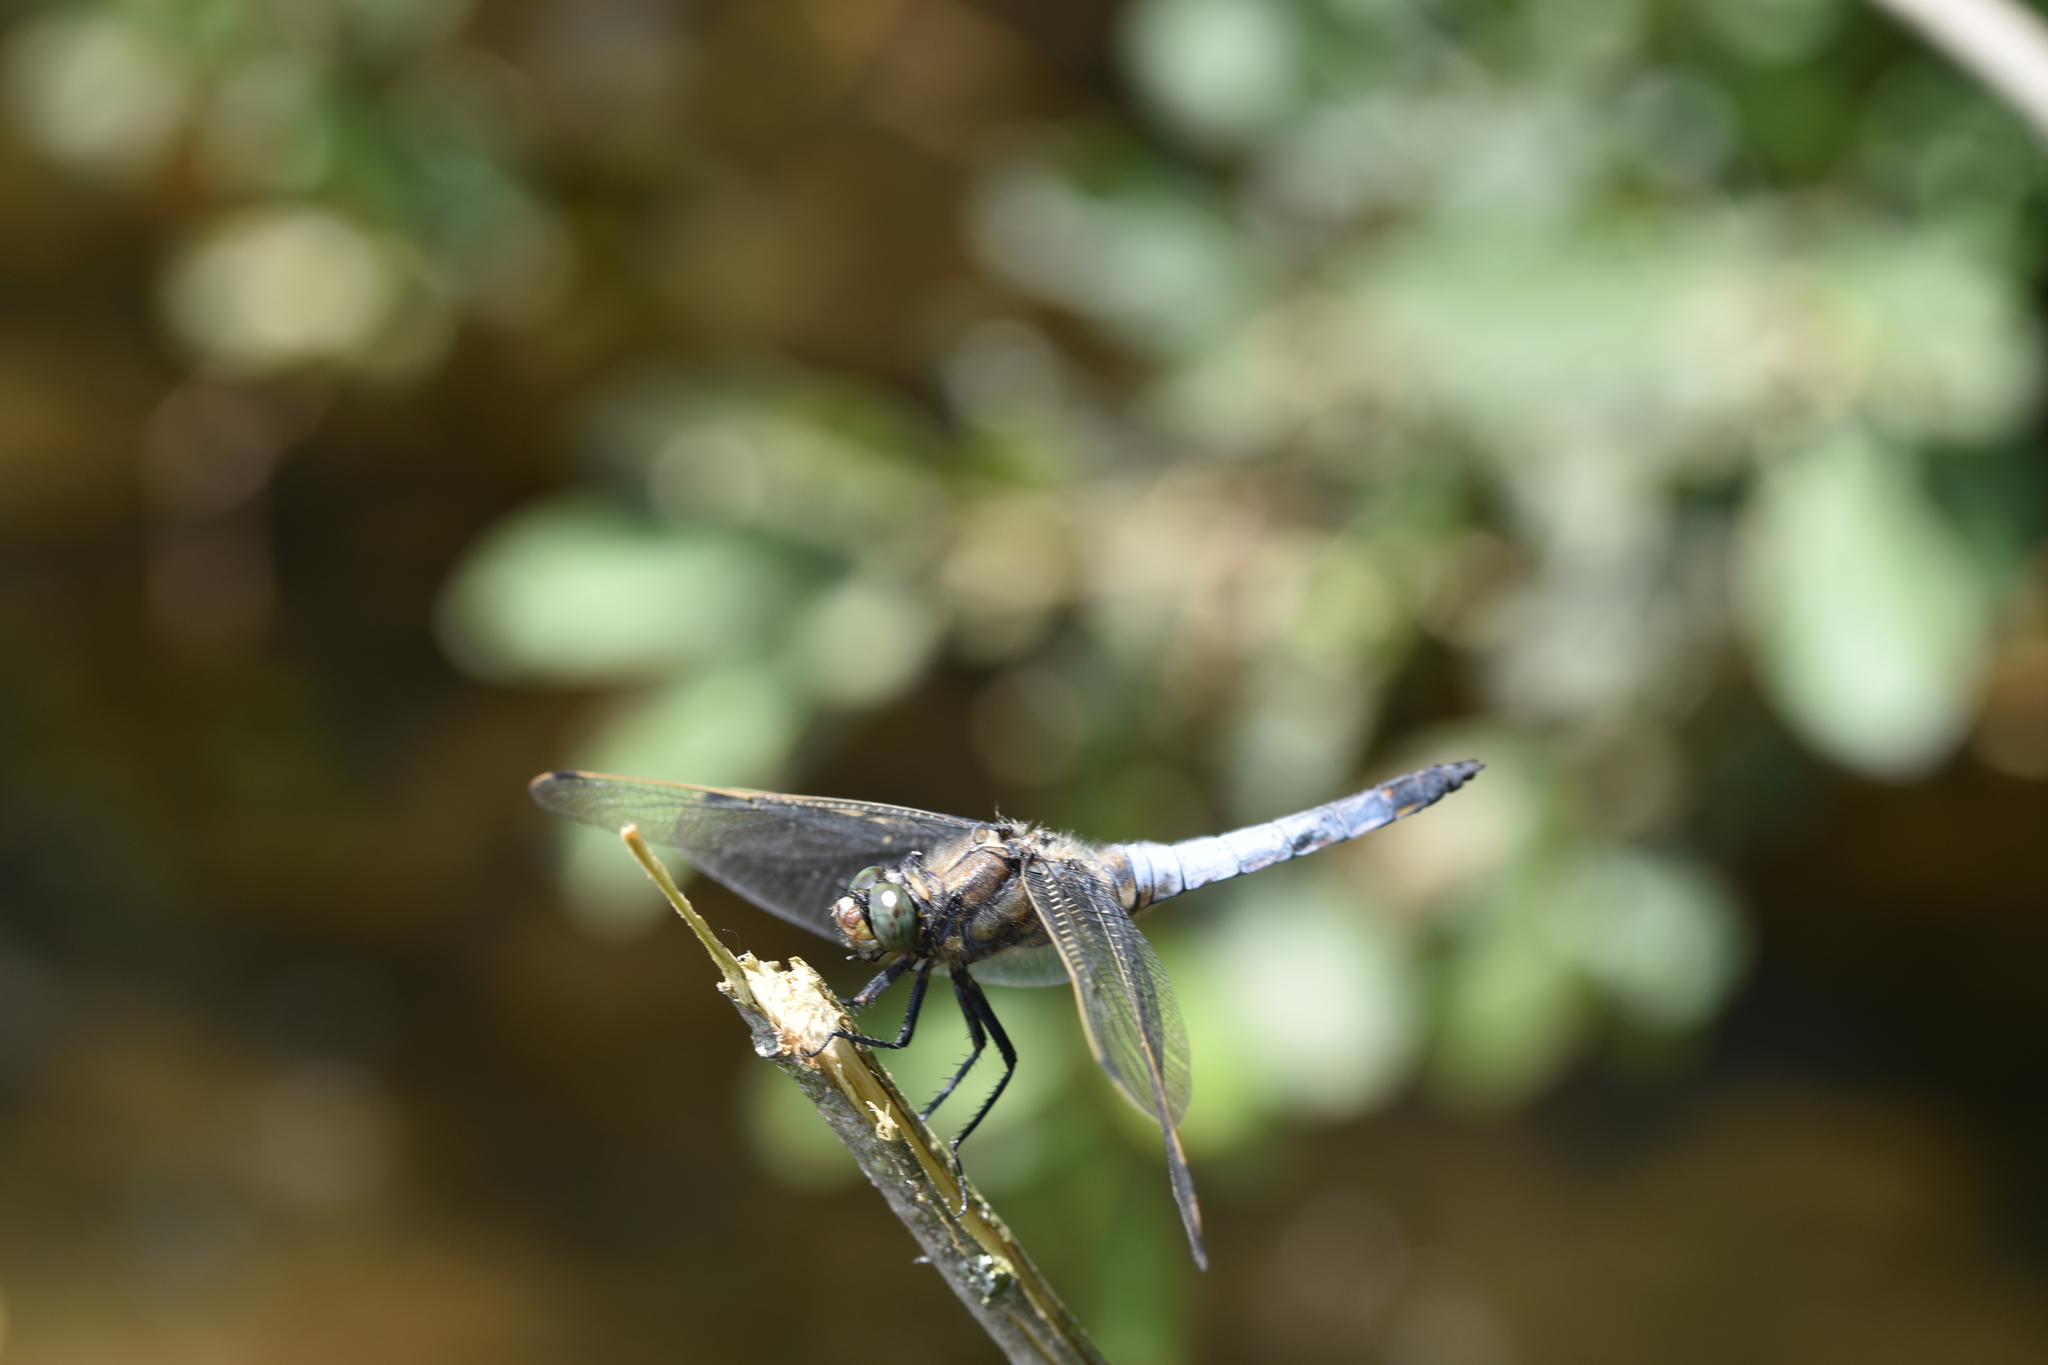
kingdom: Animalia
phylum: Arthropoda
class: Insecta
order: Odonata
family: Libellulidae
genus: Orthetrum
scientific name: Orthetrum cancellatum
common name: Black-tailed skimmer
